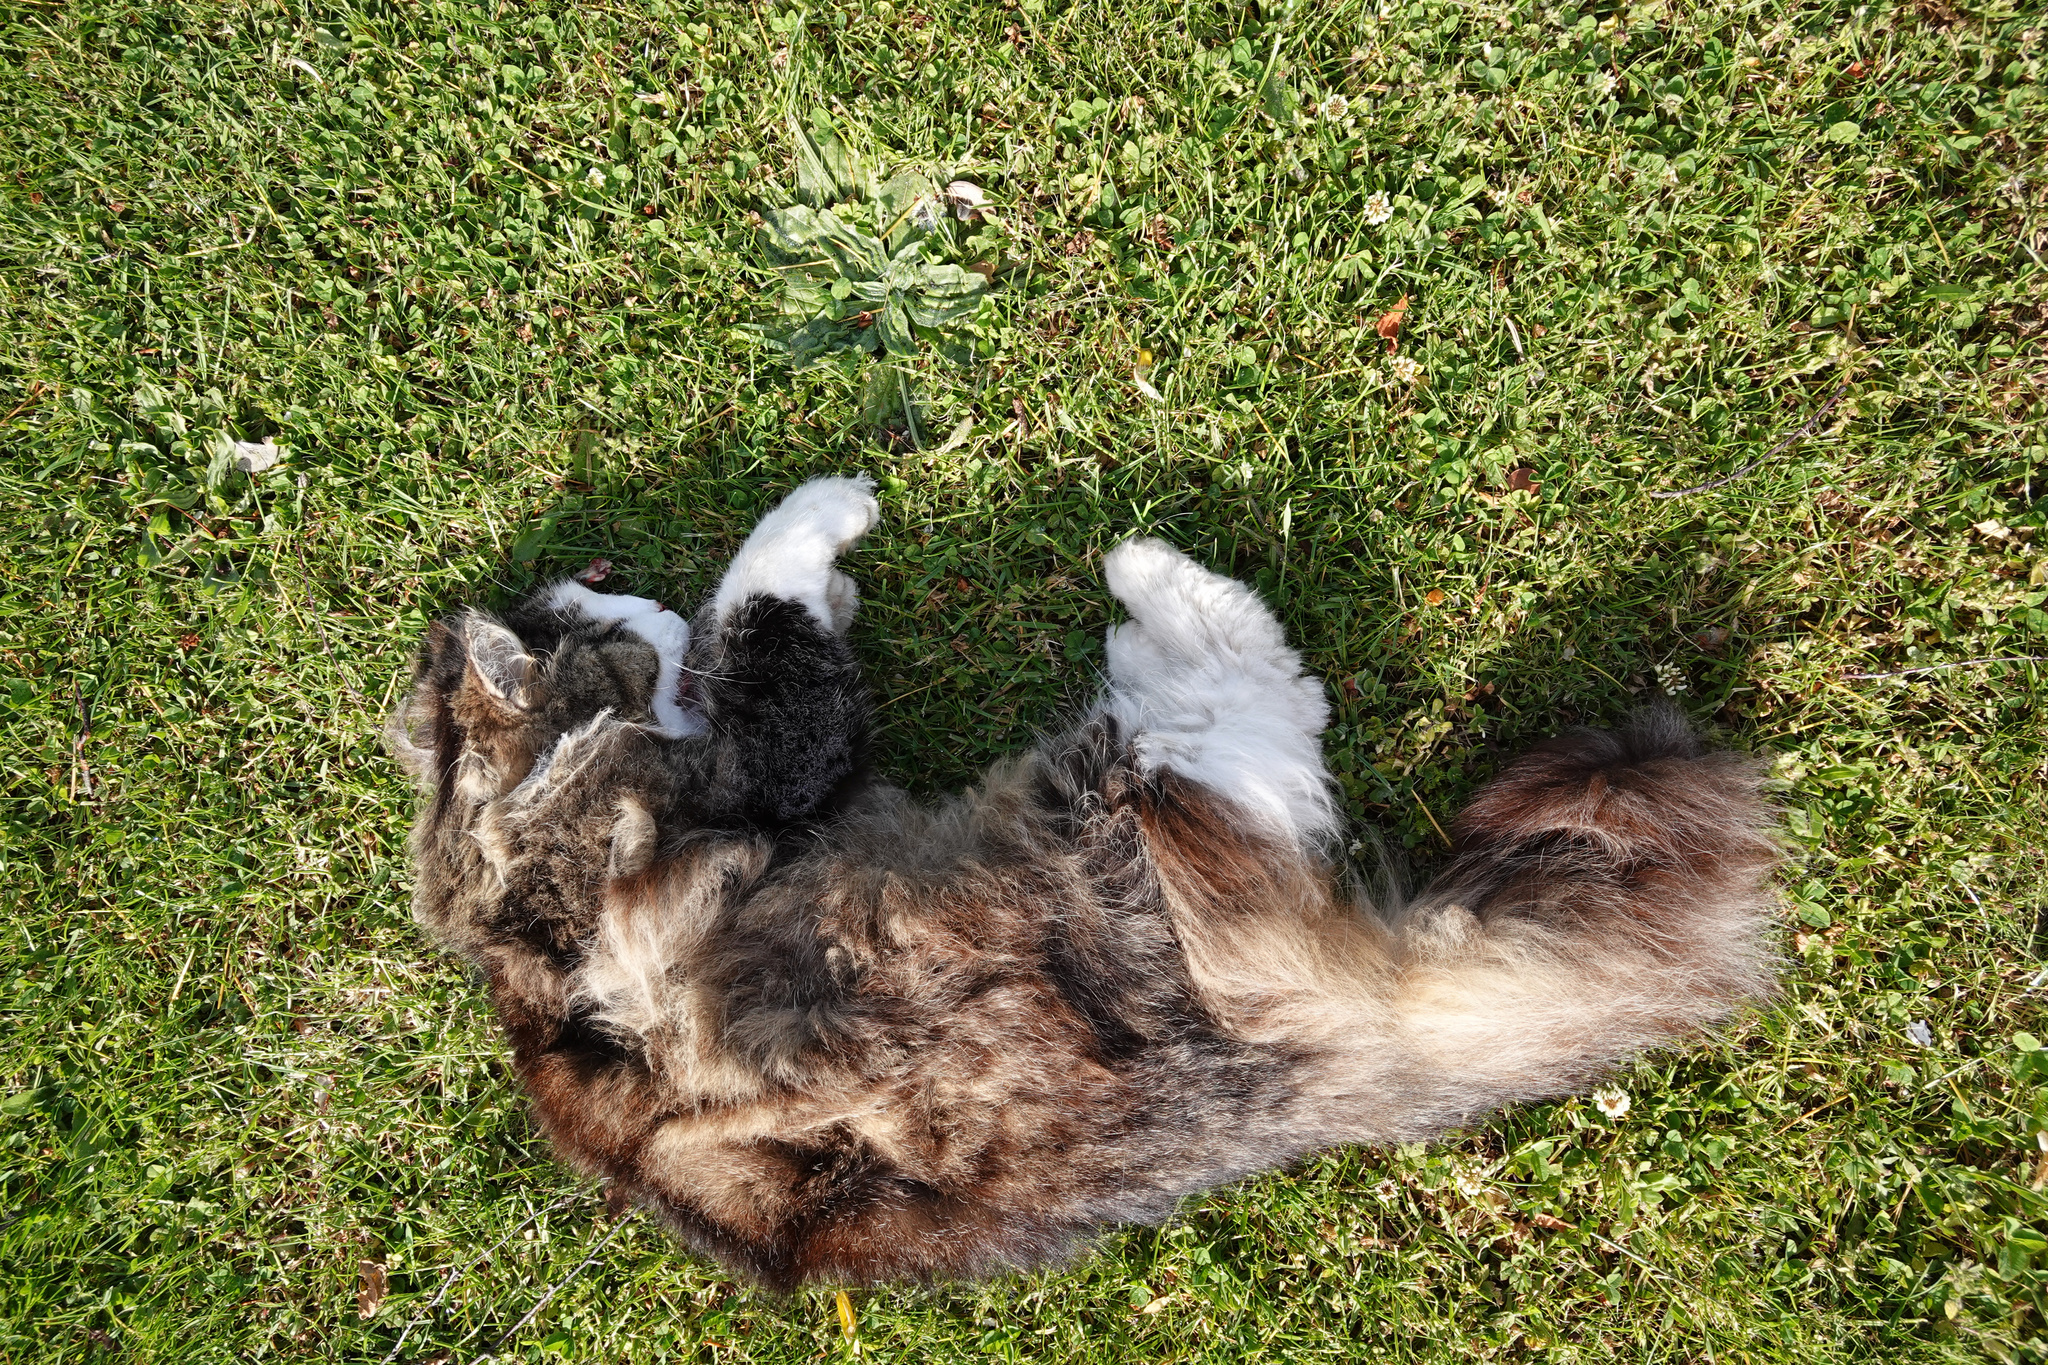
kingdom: Animalia
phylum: Chordata
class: Mammalia
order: Carnivora
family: Felidae
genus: Felis
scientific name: Felis catus
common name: Domestic cat
